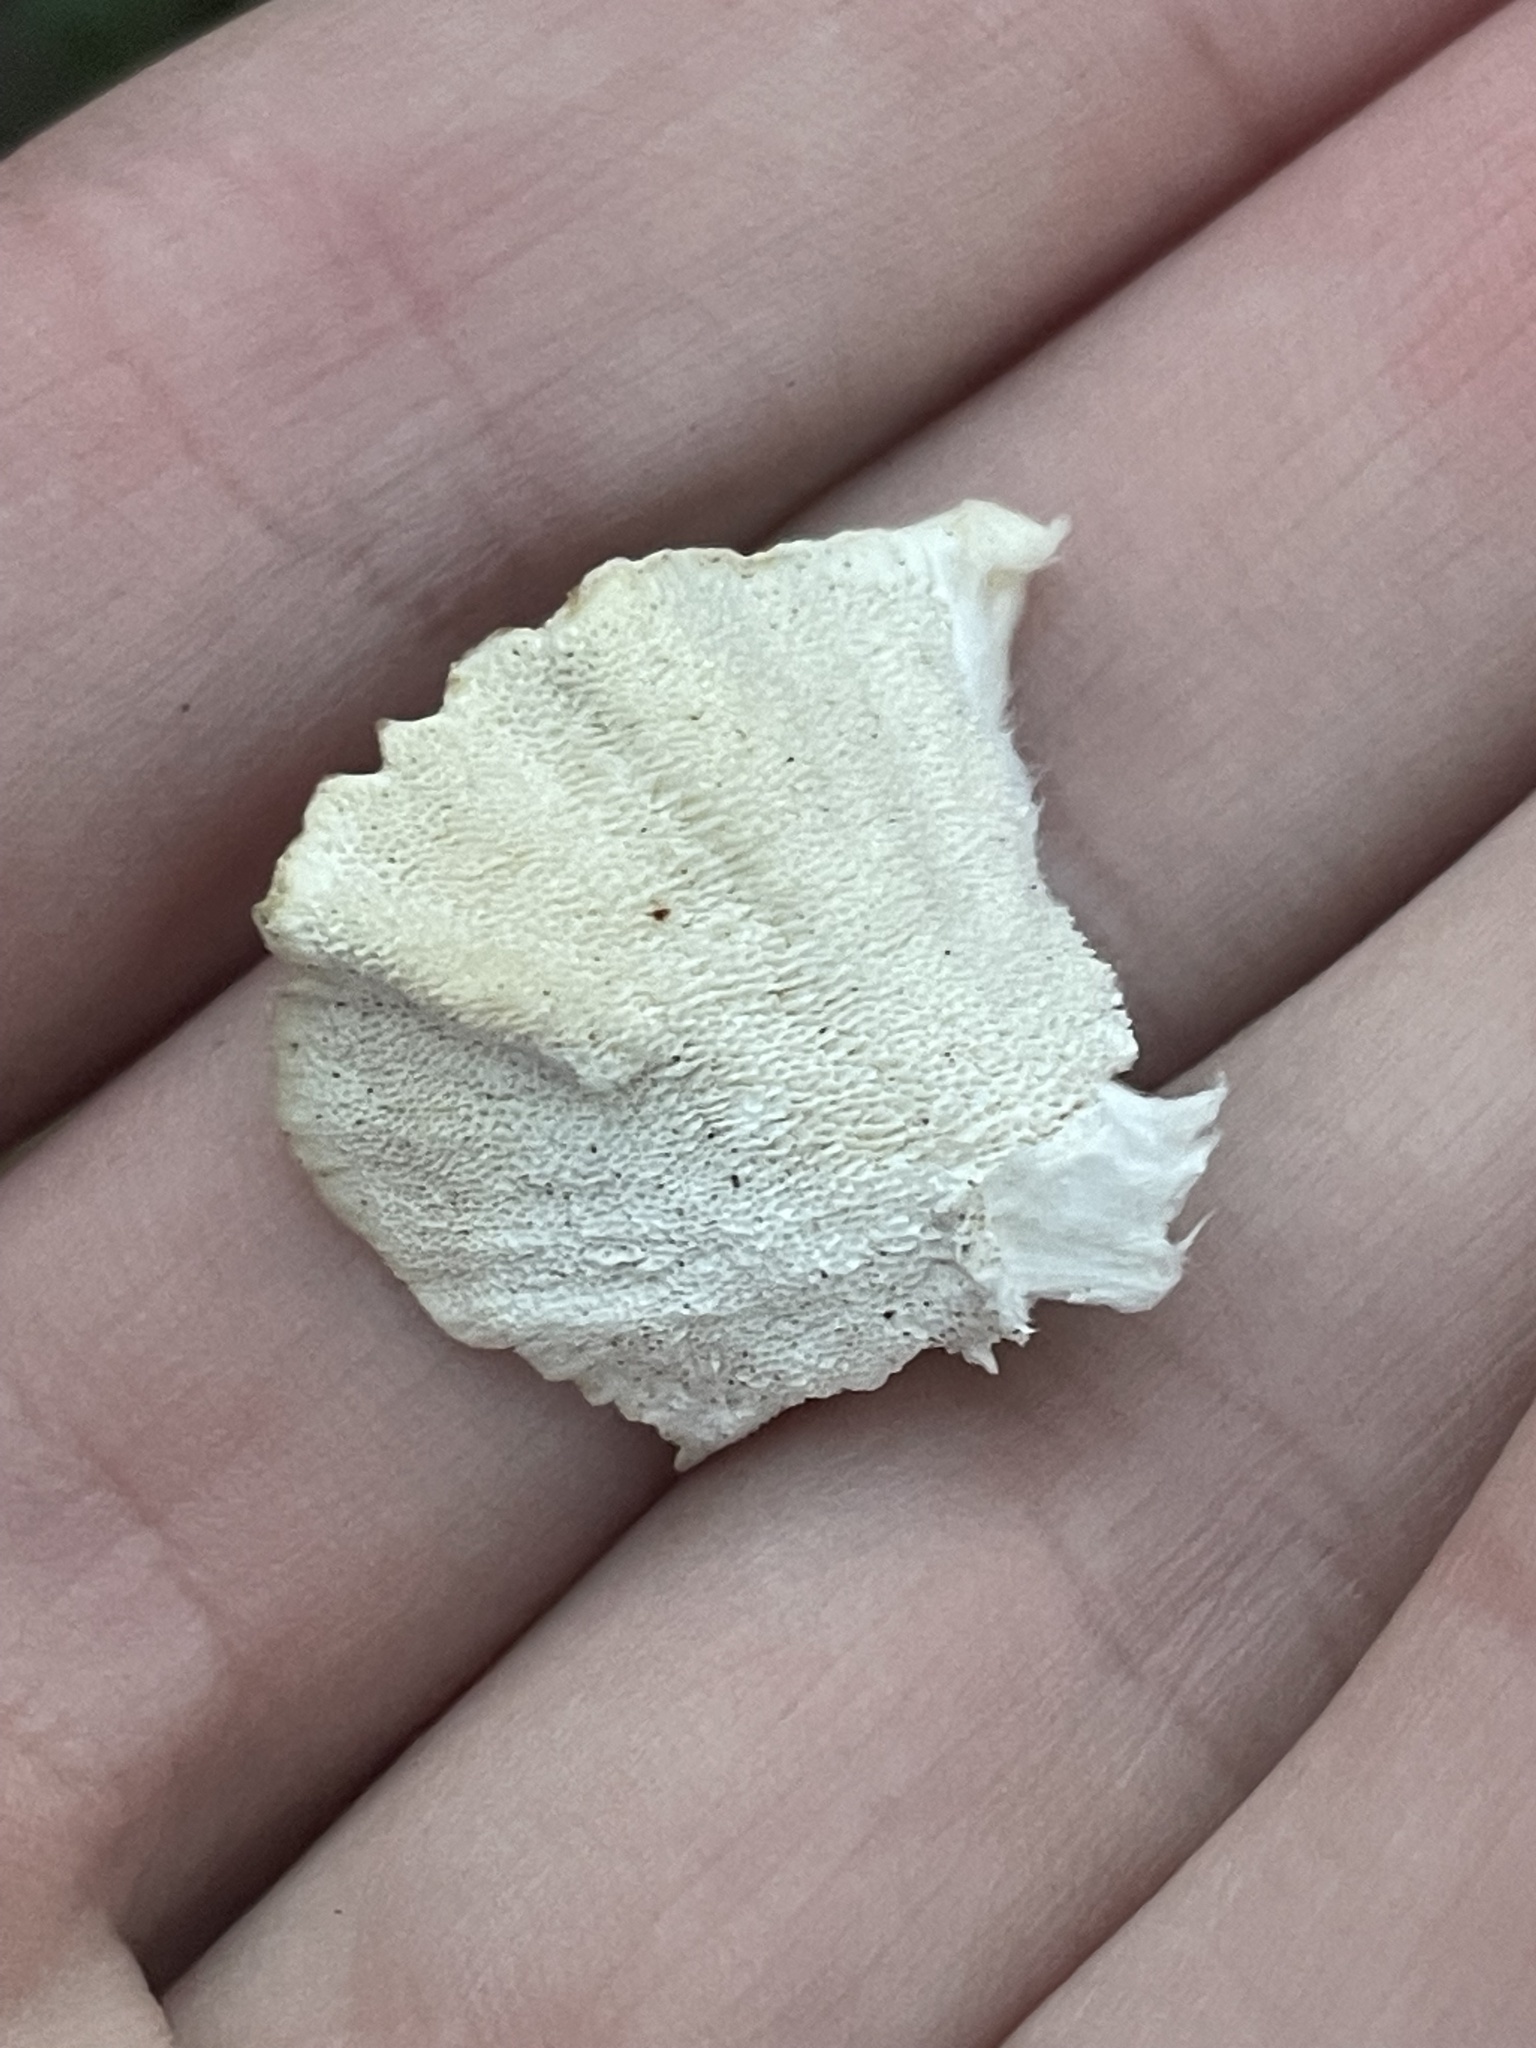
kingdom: Fungi
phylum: Basidiomycota
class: Agaricomycetes
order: Polyporales
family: Polyporaceae
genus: Trametes
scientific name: Trametes versicolor
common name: Turkeytail
